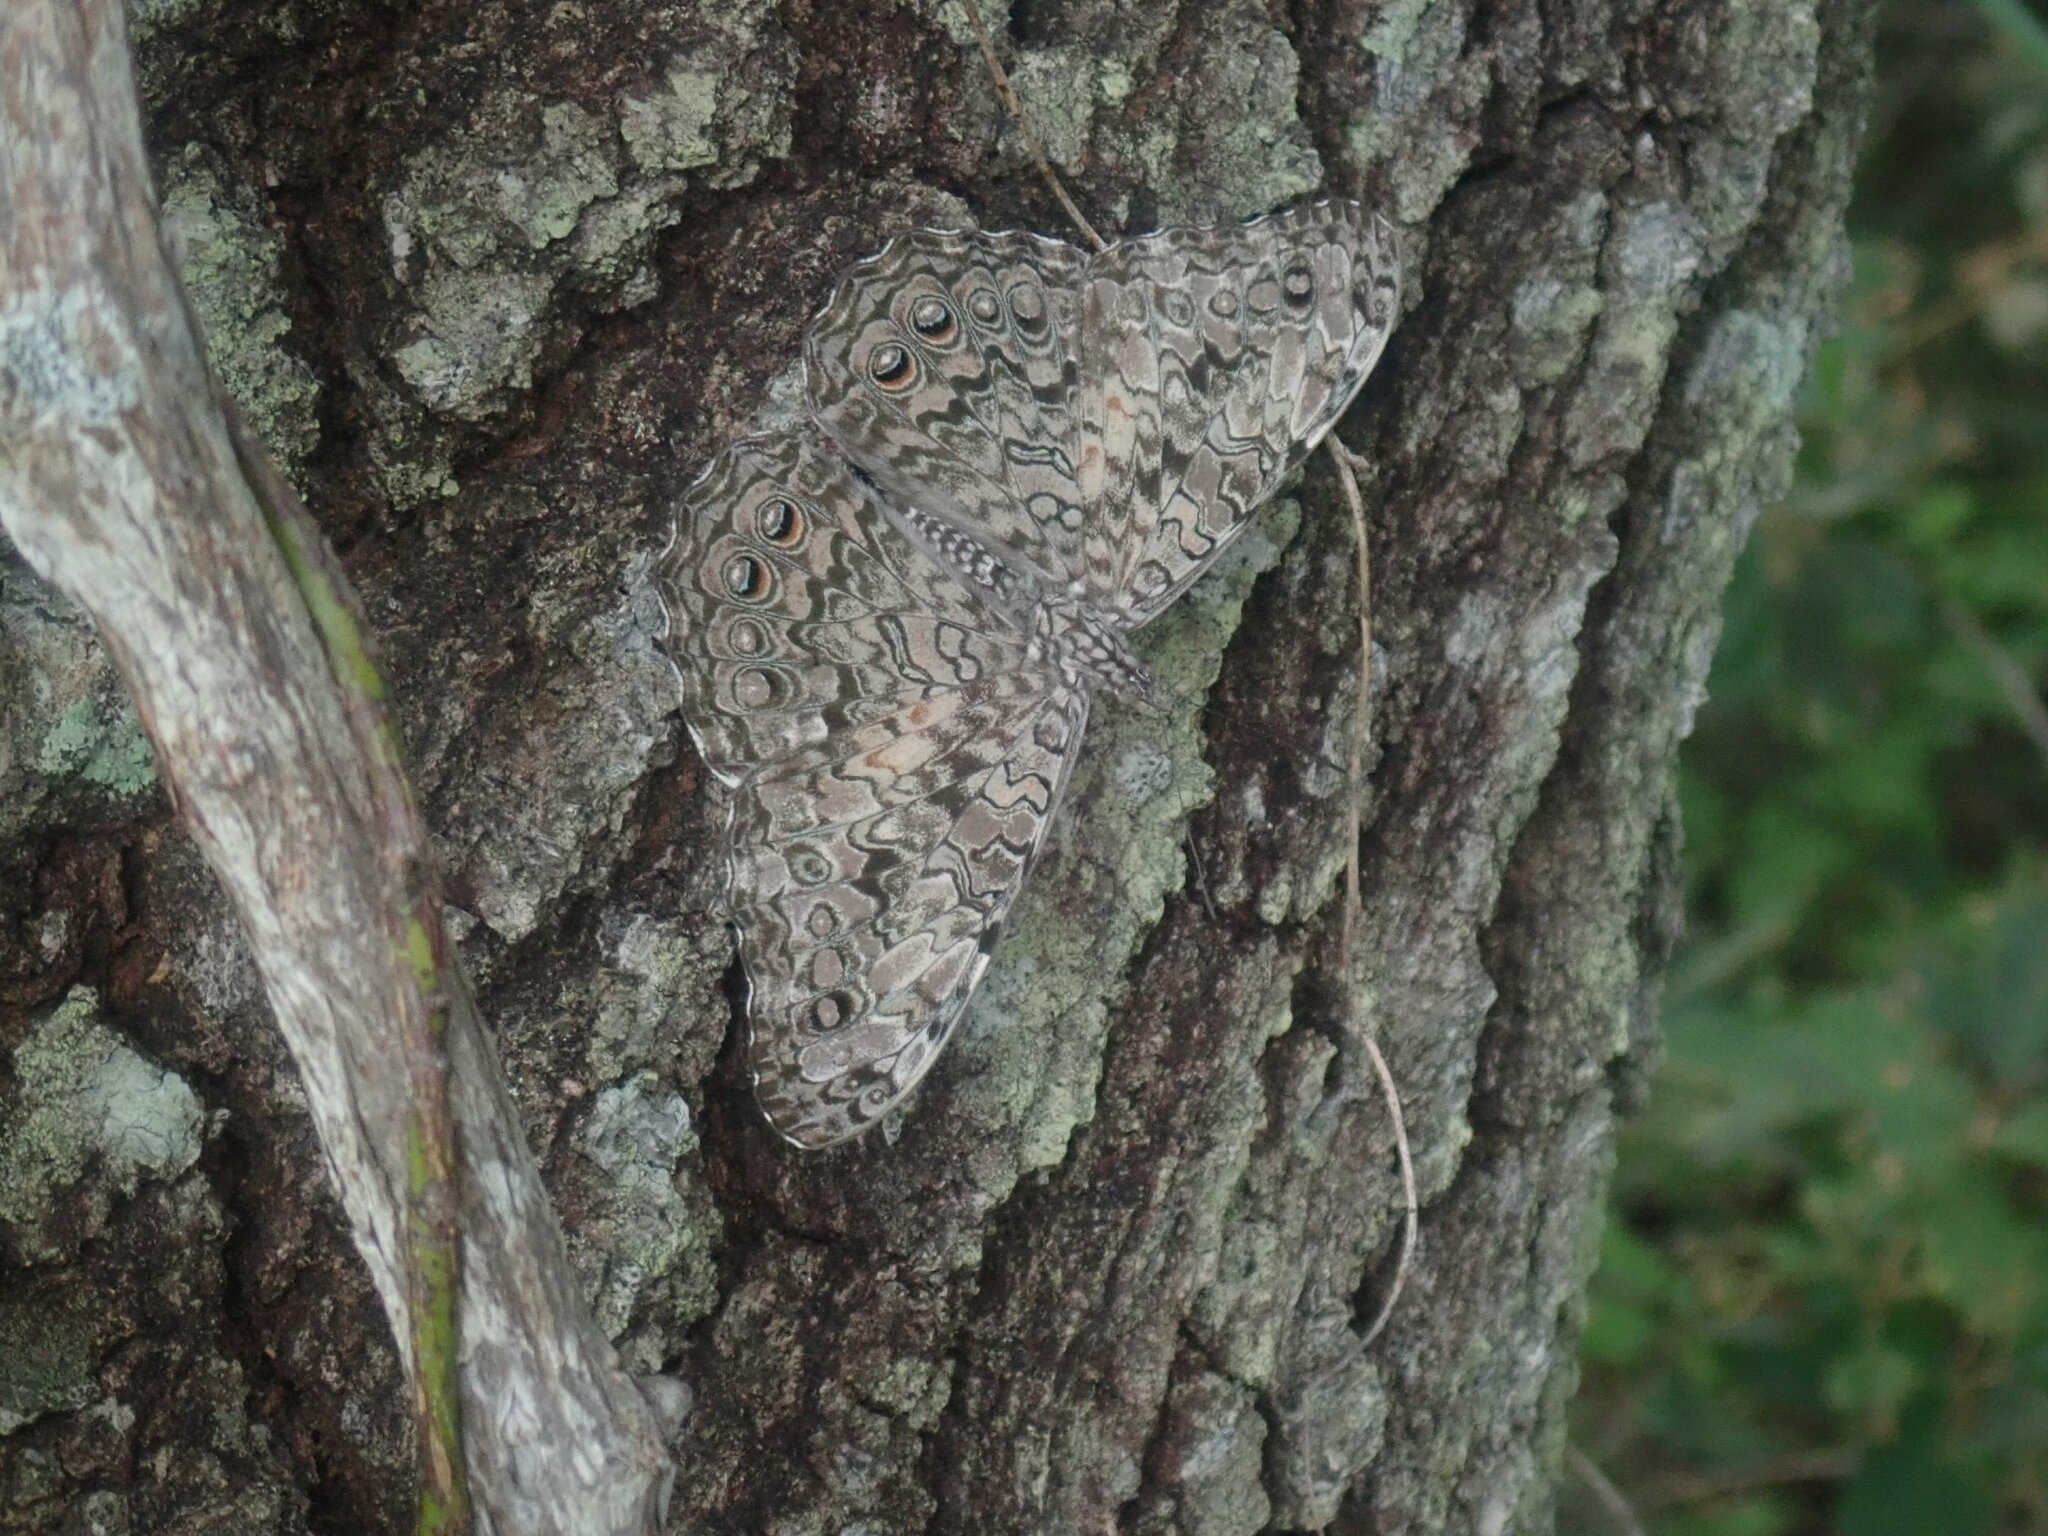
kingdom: Animalia
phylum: Arthropoda
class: Insecta
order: Lepidoptera
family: Nymphalidae
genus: Hamadryas
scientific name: Hamadryas februa
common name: Gray cracker
